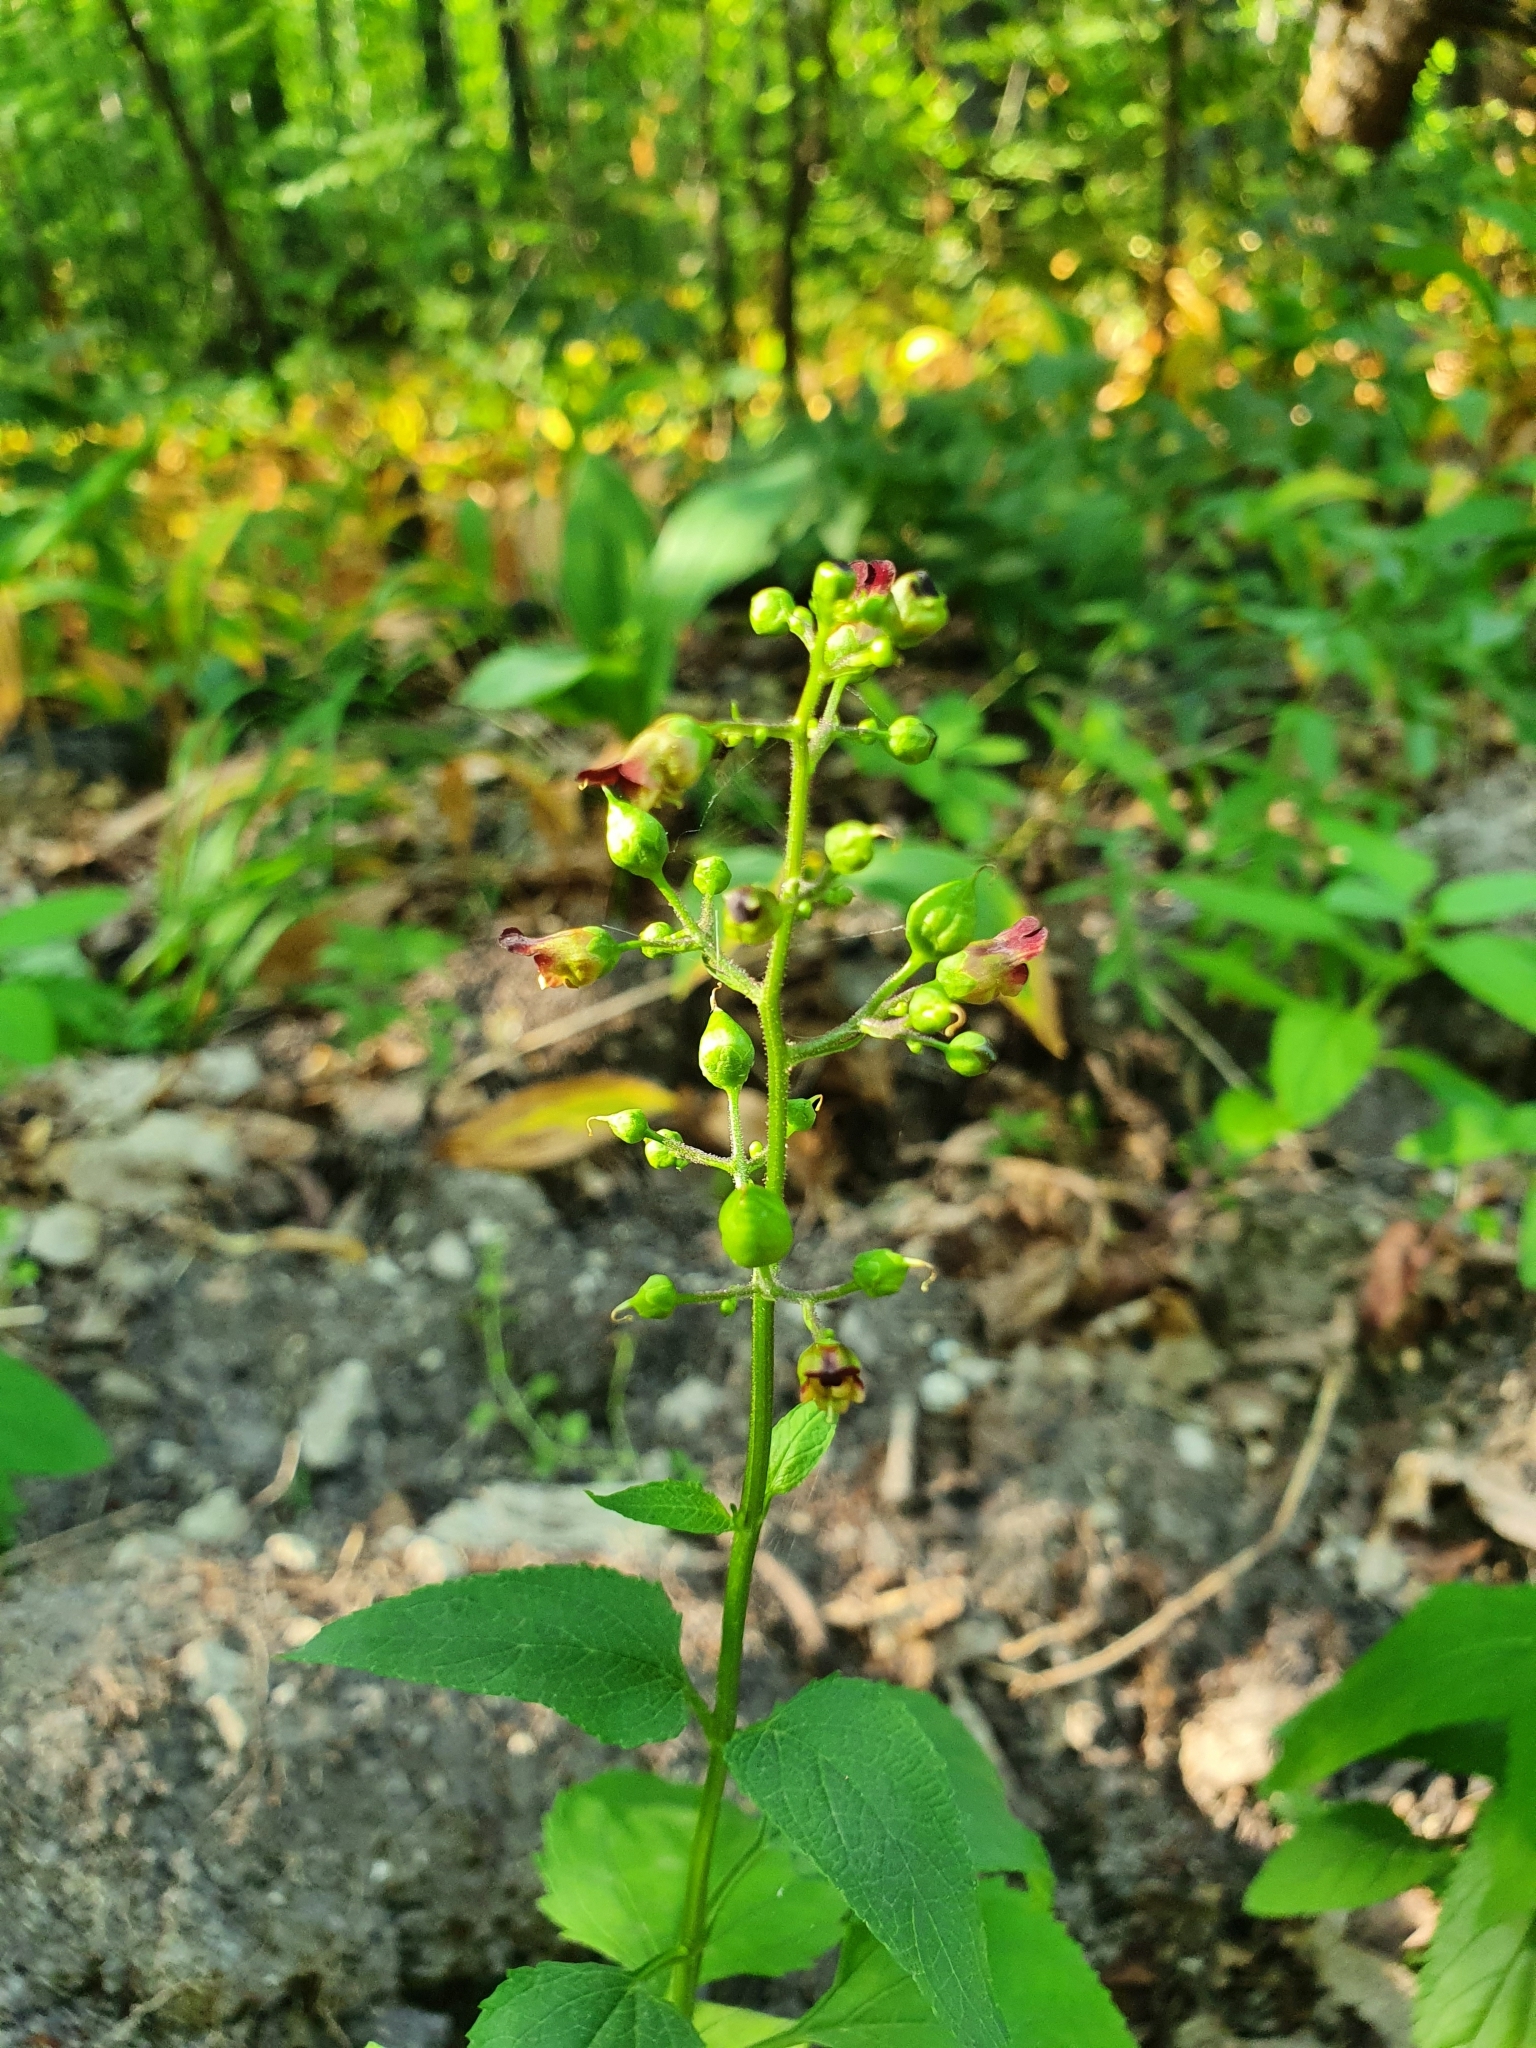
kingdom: Plantae
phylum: Tracheophyta
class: Magnoliopsida
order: Lamiales
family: Scrophulariaceae
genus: Scrophularia
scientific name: Scrophularia nodosa
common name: Common figwort
